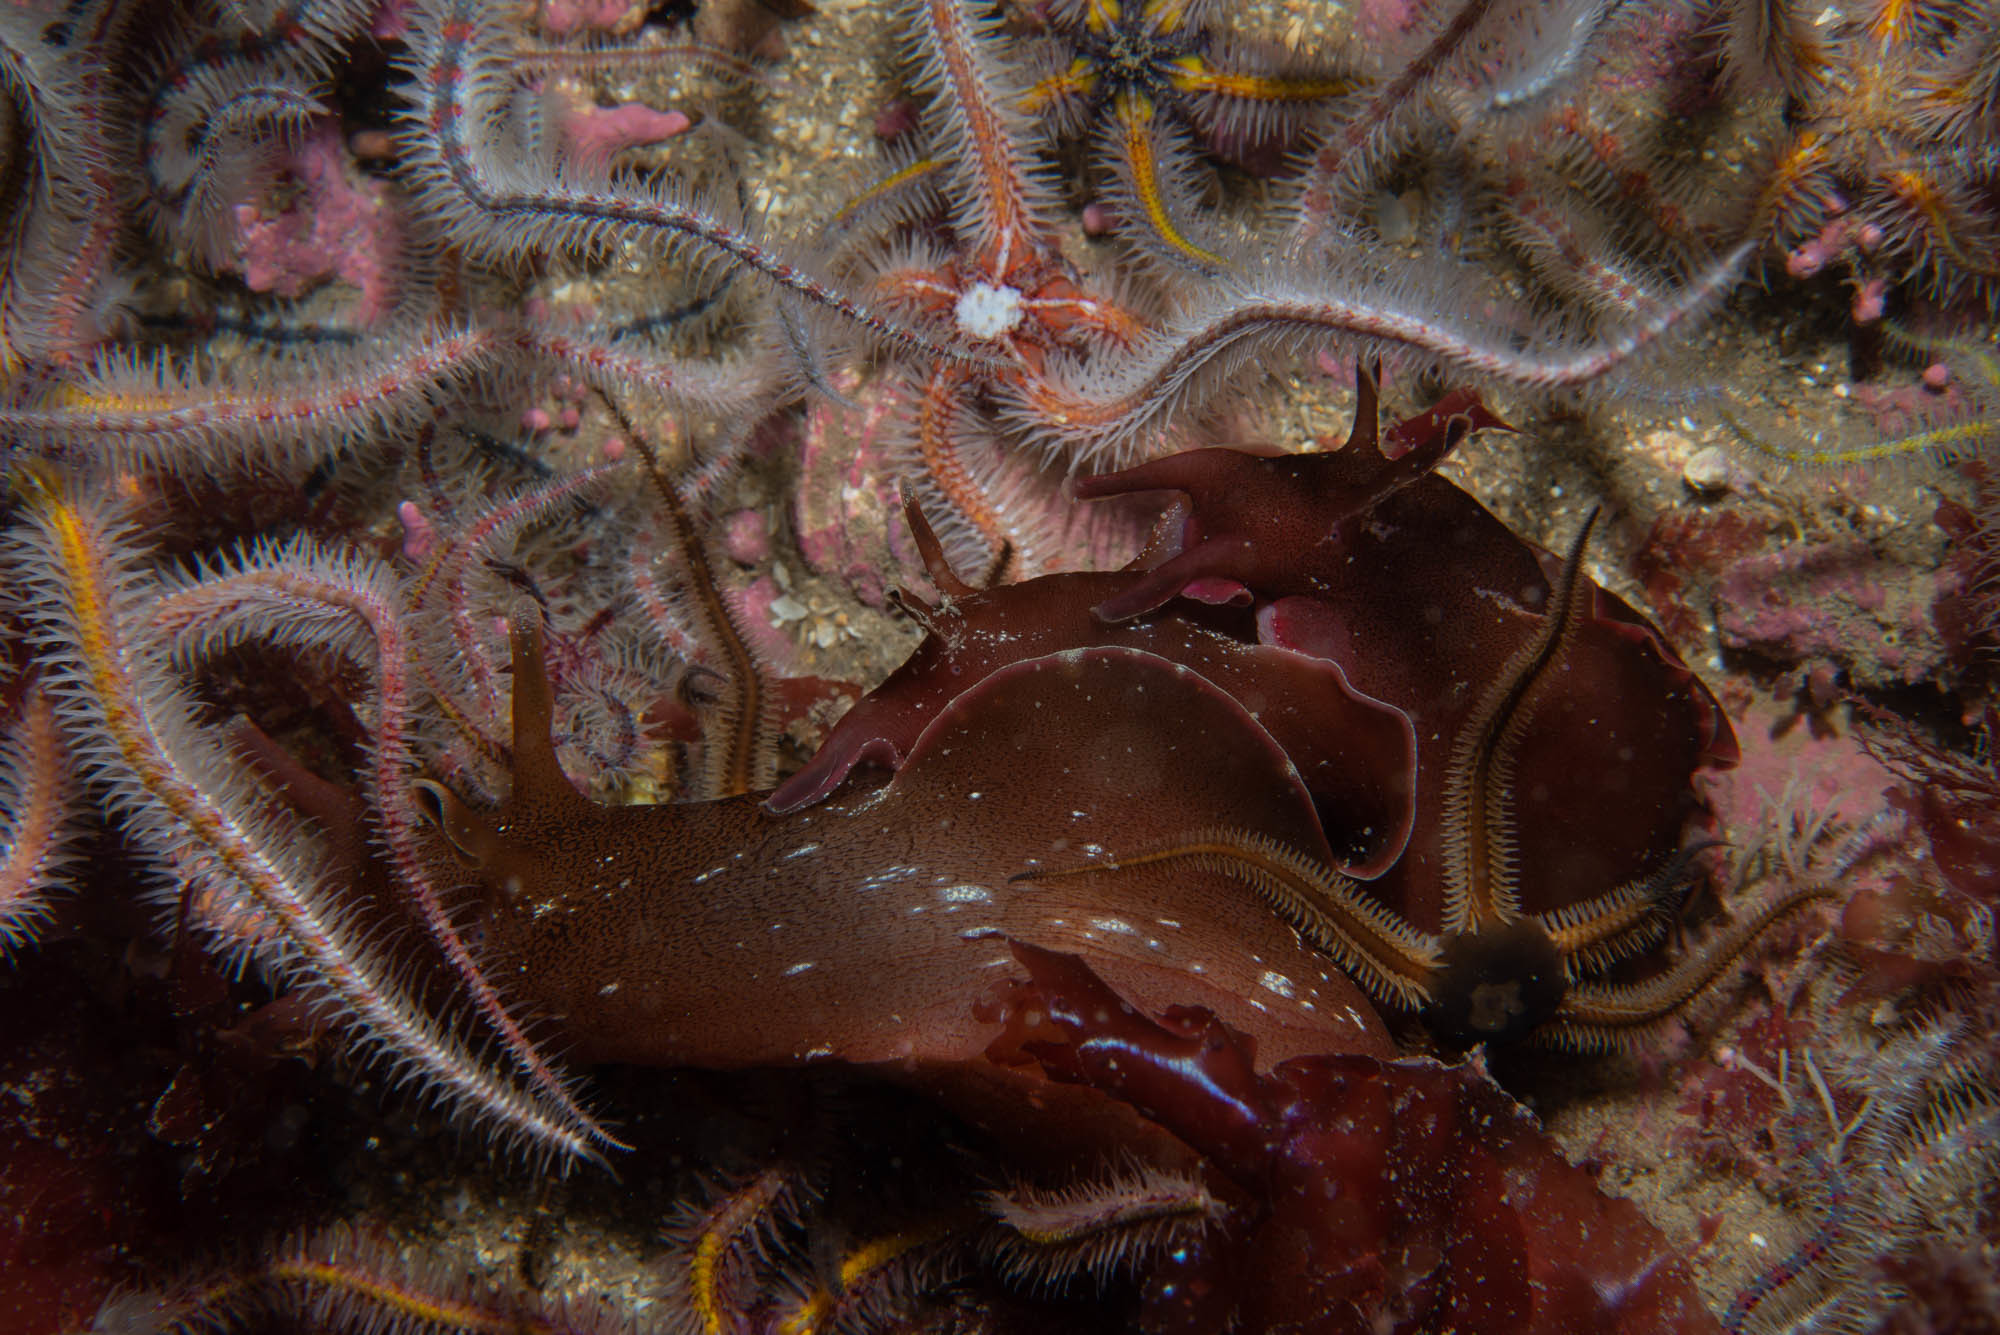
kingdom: Animalia
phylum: Mollusca
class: Gastropoda
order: Aplysiida
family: Aplysiidae
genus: Aplysia
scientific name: Aplysia punctata
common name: Common sea hare
